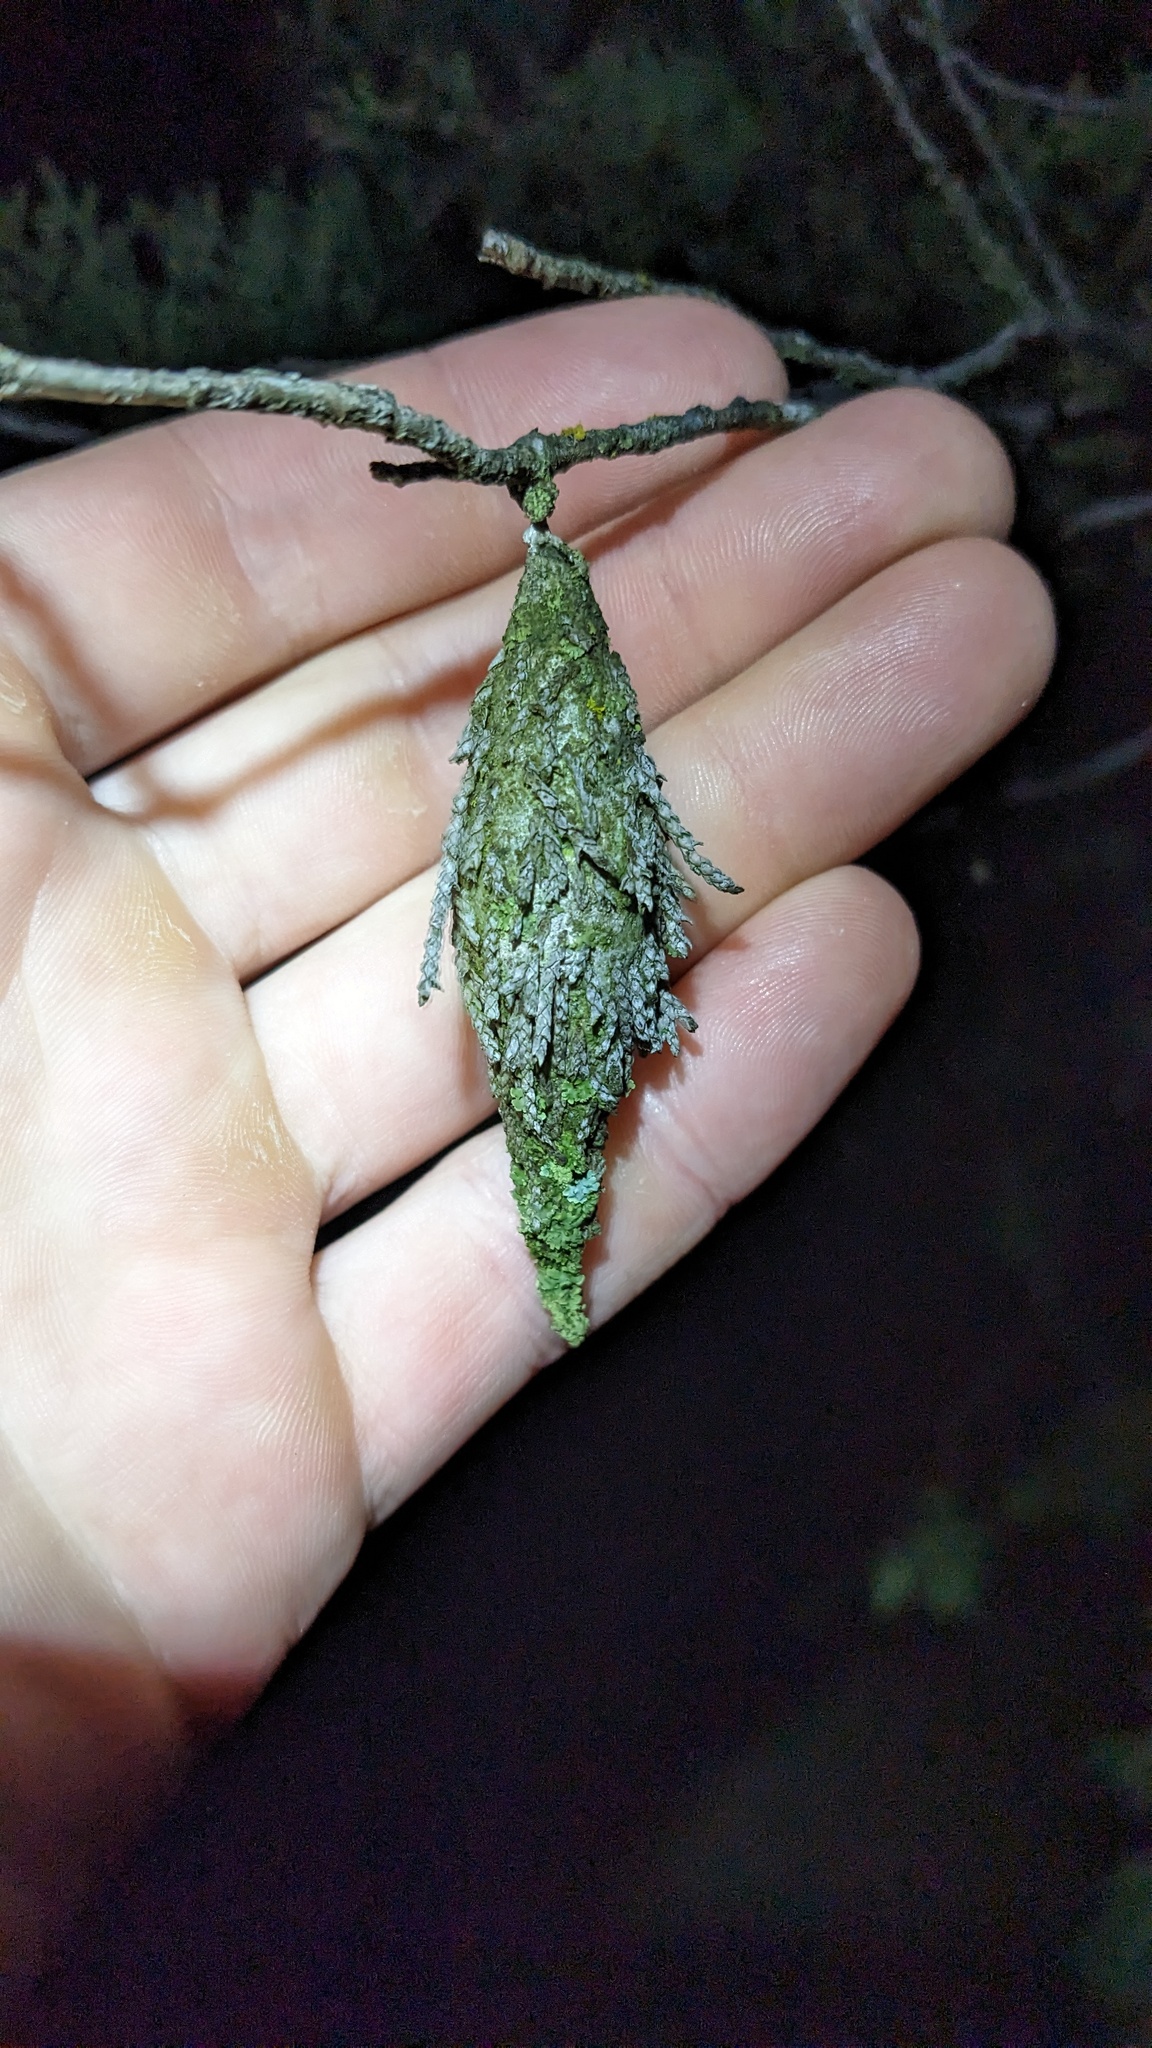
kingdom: Animalia
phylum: Arthropoda
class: Insecta
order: Lepidoptera
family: Psychidae
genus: Thyridopteryx
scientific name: Thyridopteryx ephemeraeformis
